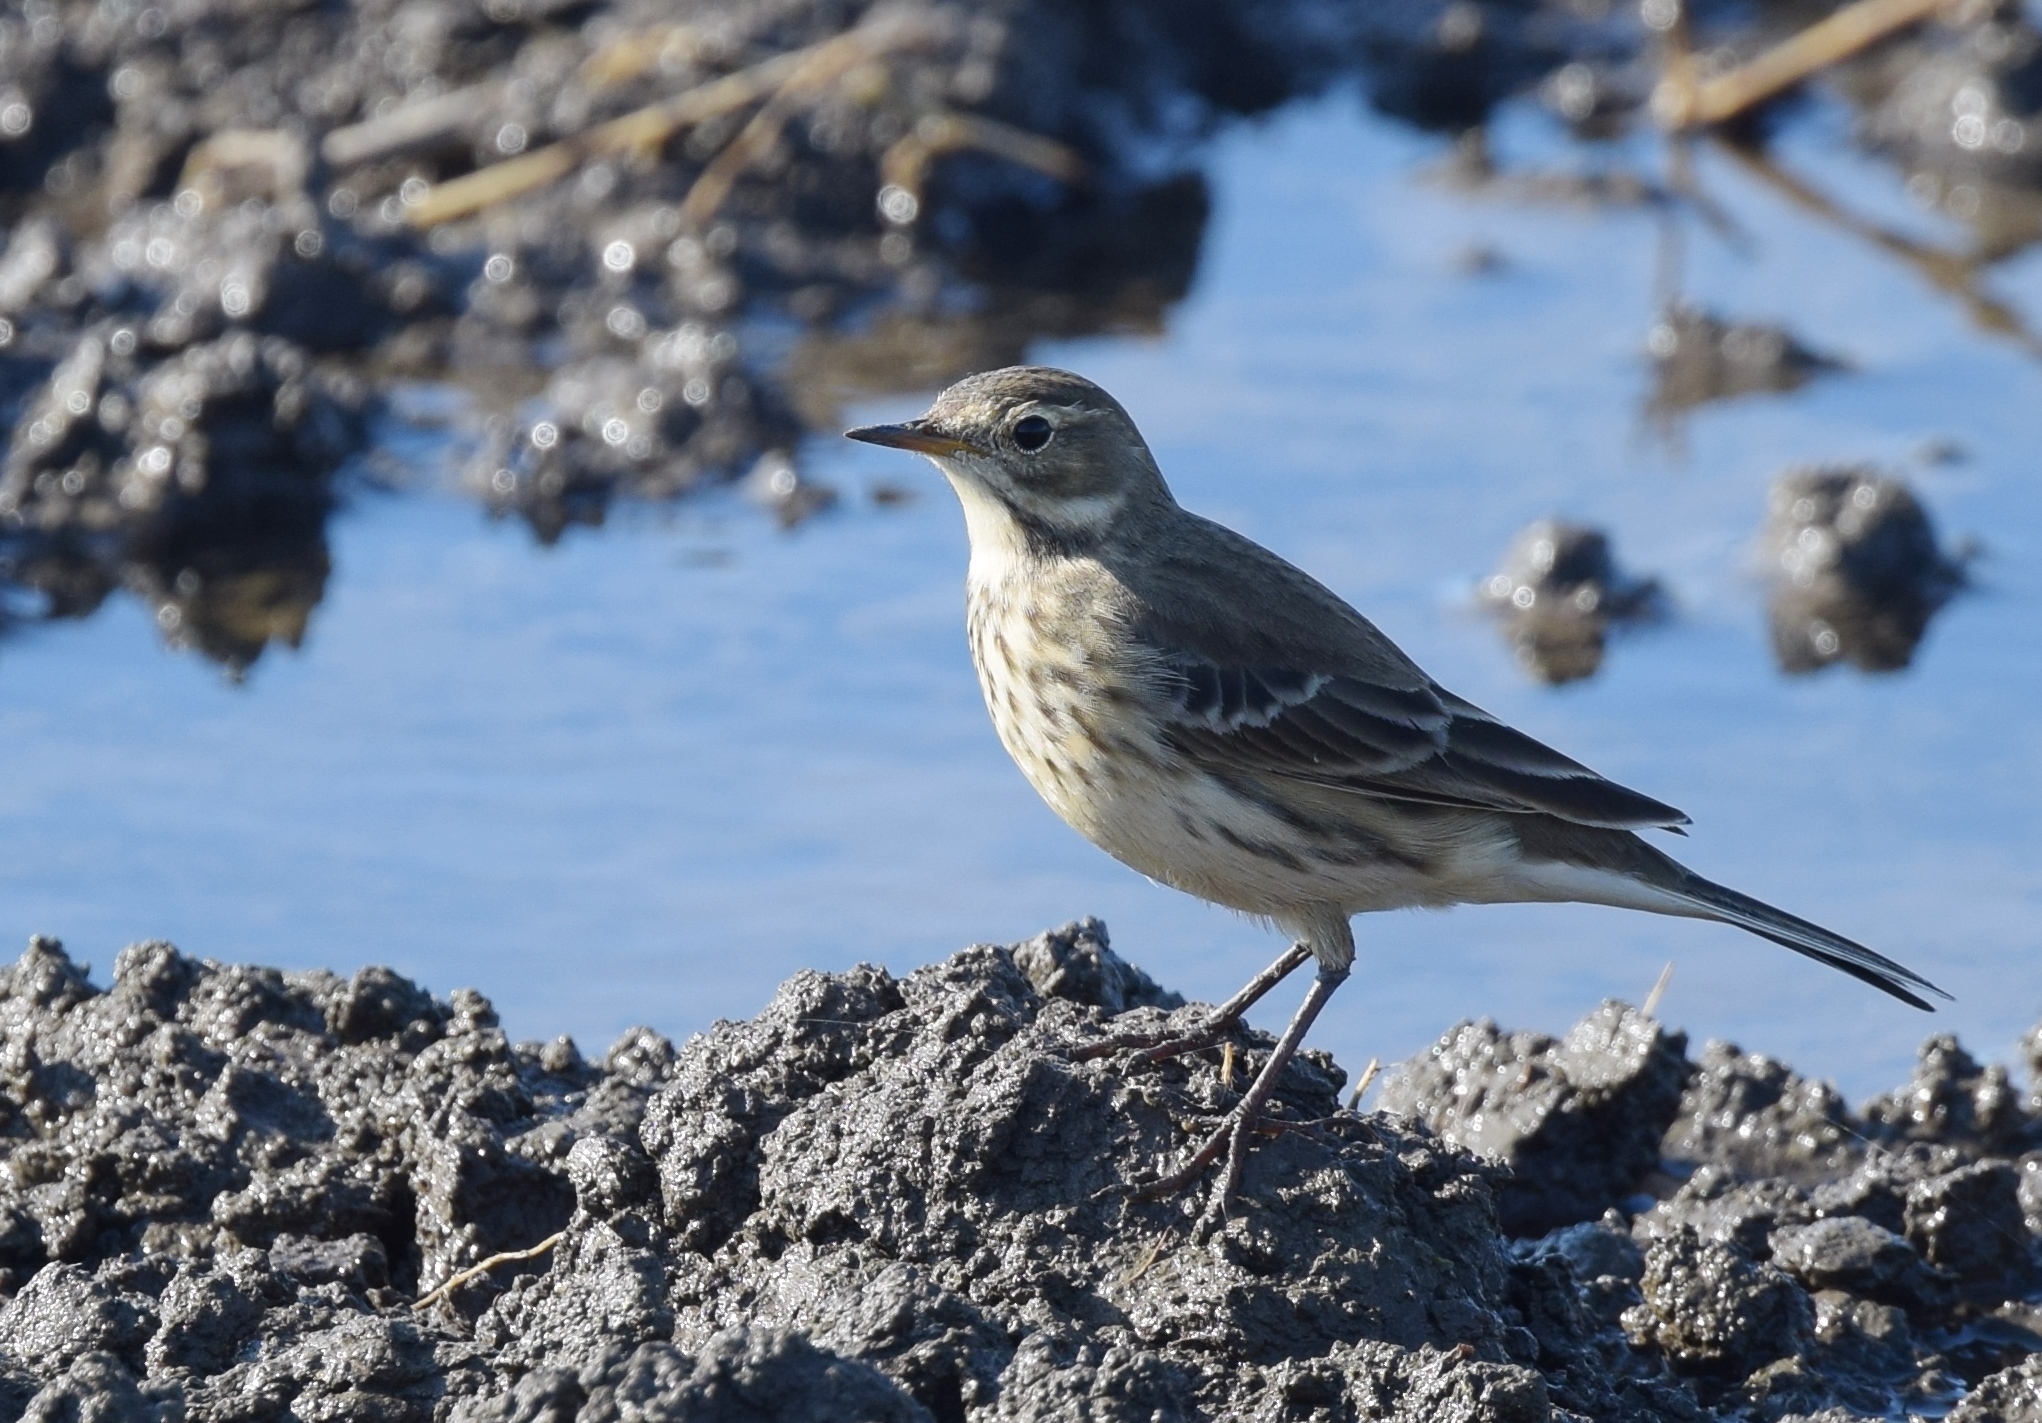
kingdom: Animalia
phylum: Chordata
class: Aves
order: Passeriformes
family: Motacillidae
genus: Anthus
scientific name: Anthus rubescens
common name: Buff-bellied pipit
